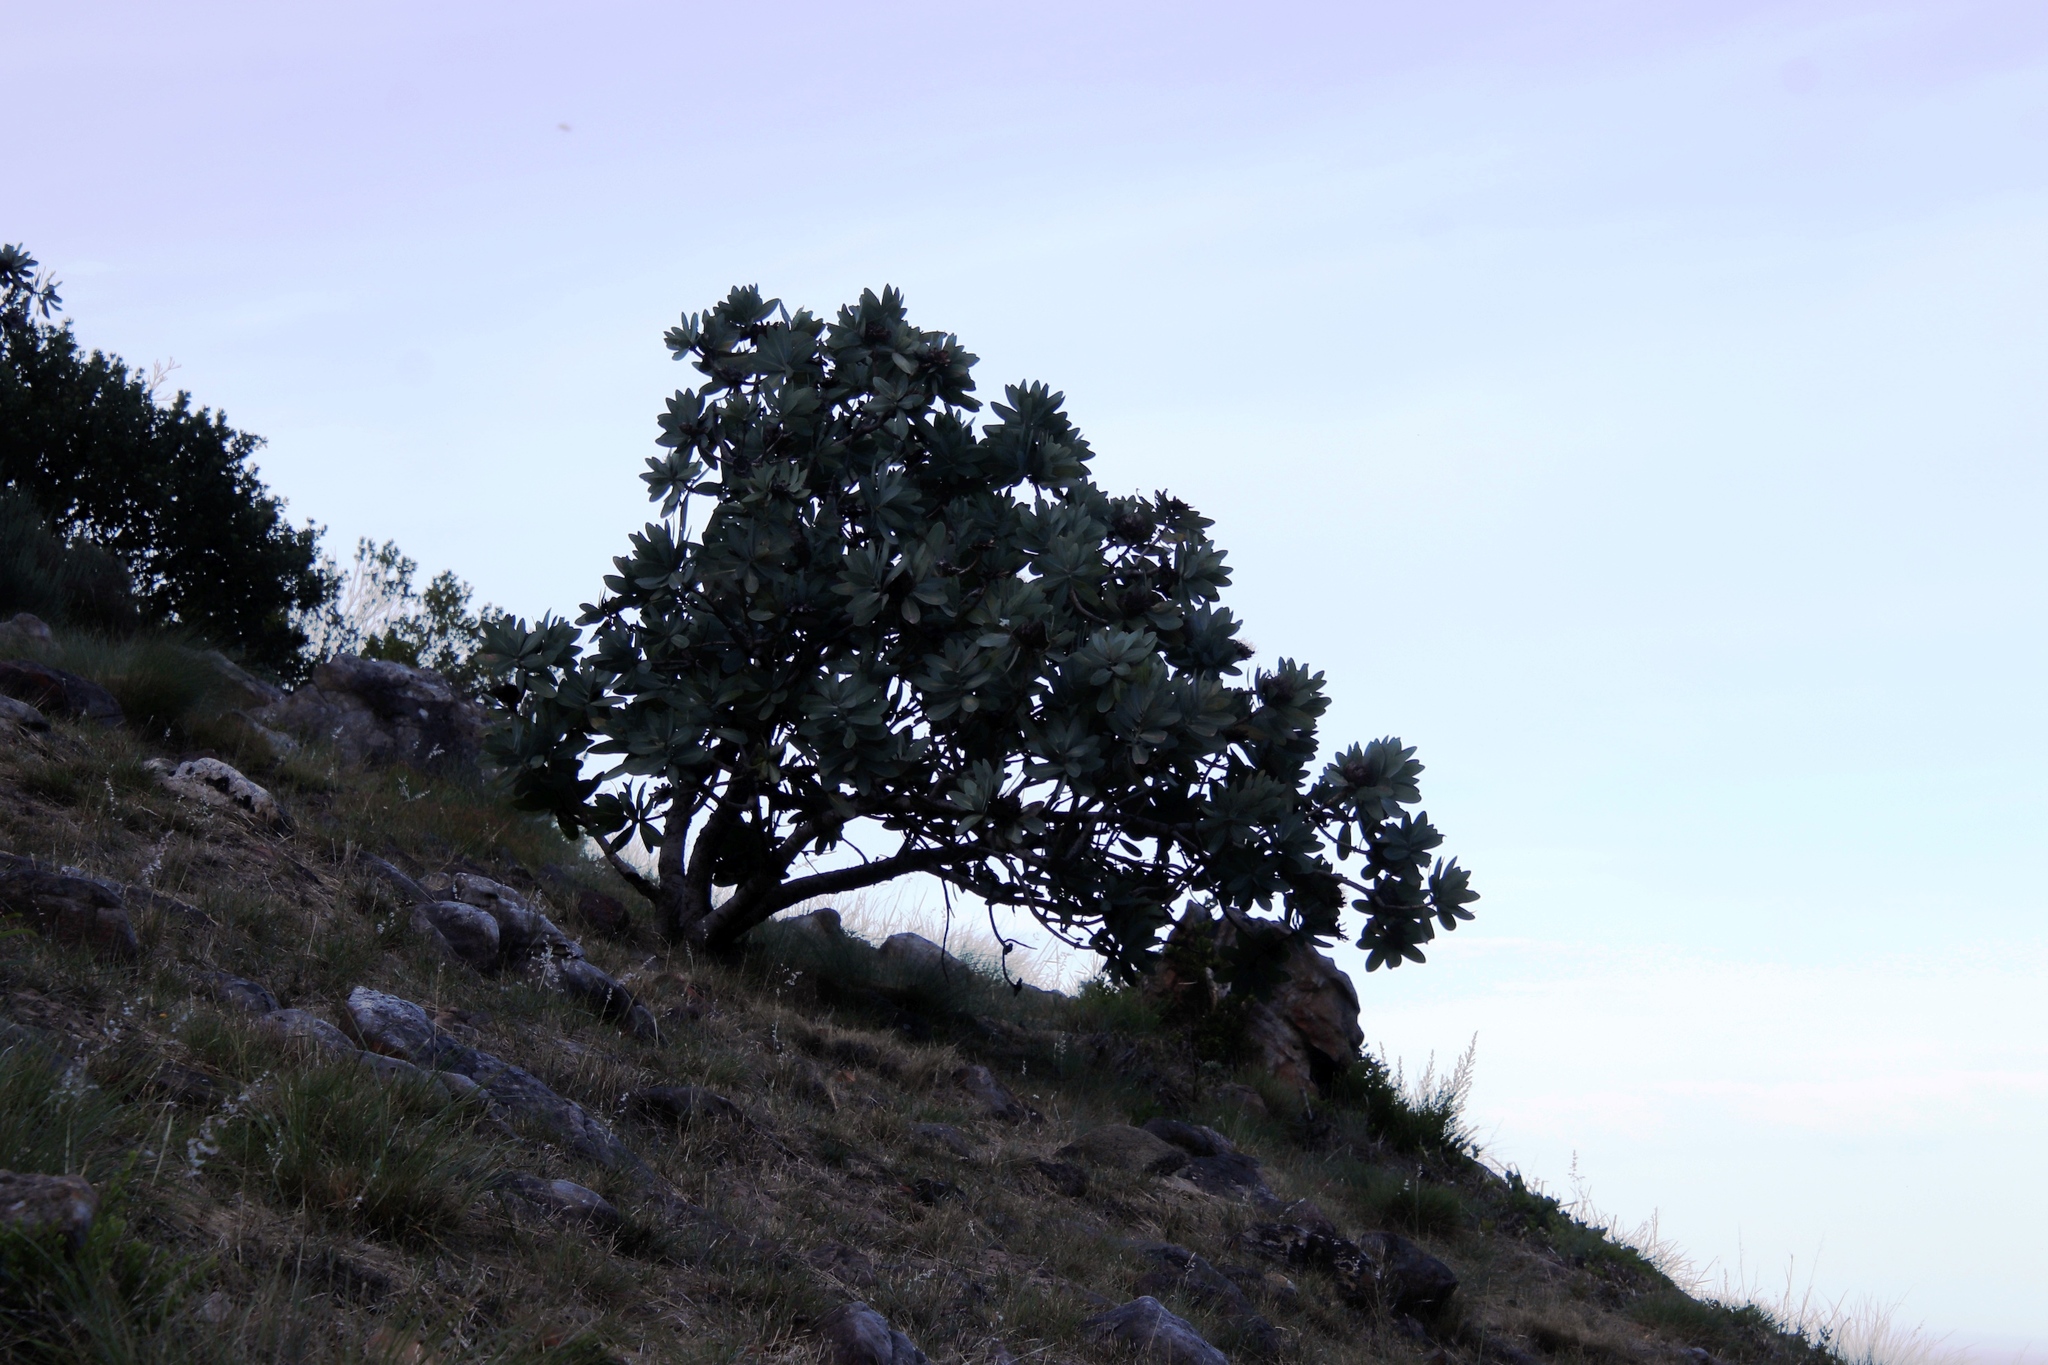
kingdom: Plantae
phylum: Tracheophyta
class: Magnoliopsida
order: Proteales
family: Proteaceae
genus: Protea
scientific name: Protea nitida
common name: Tree protea
